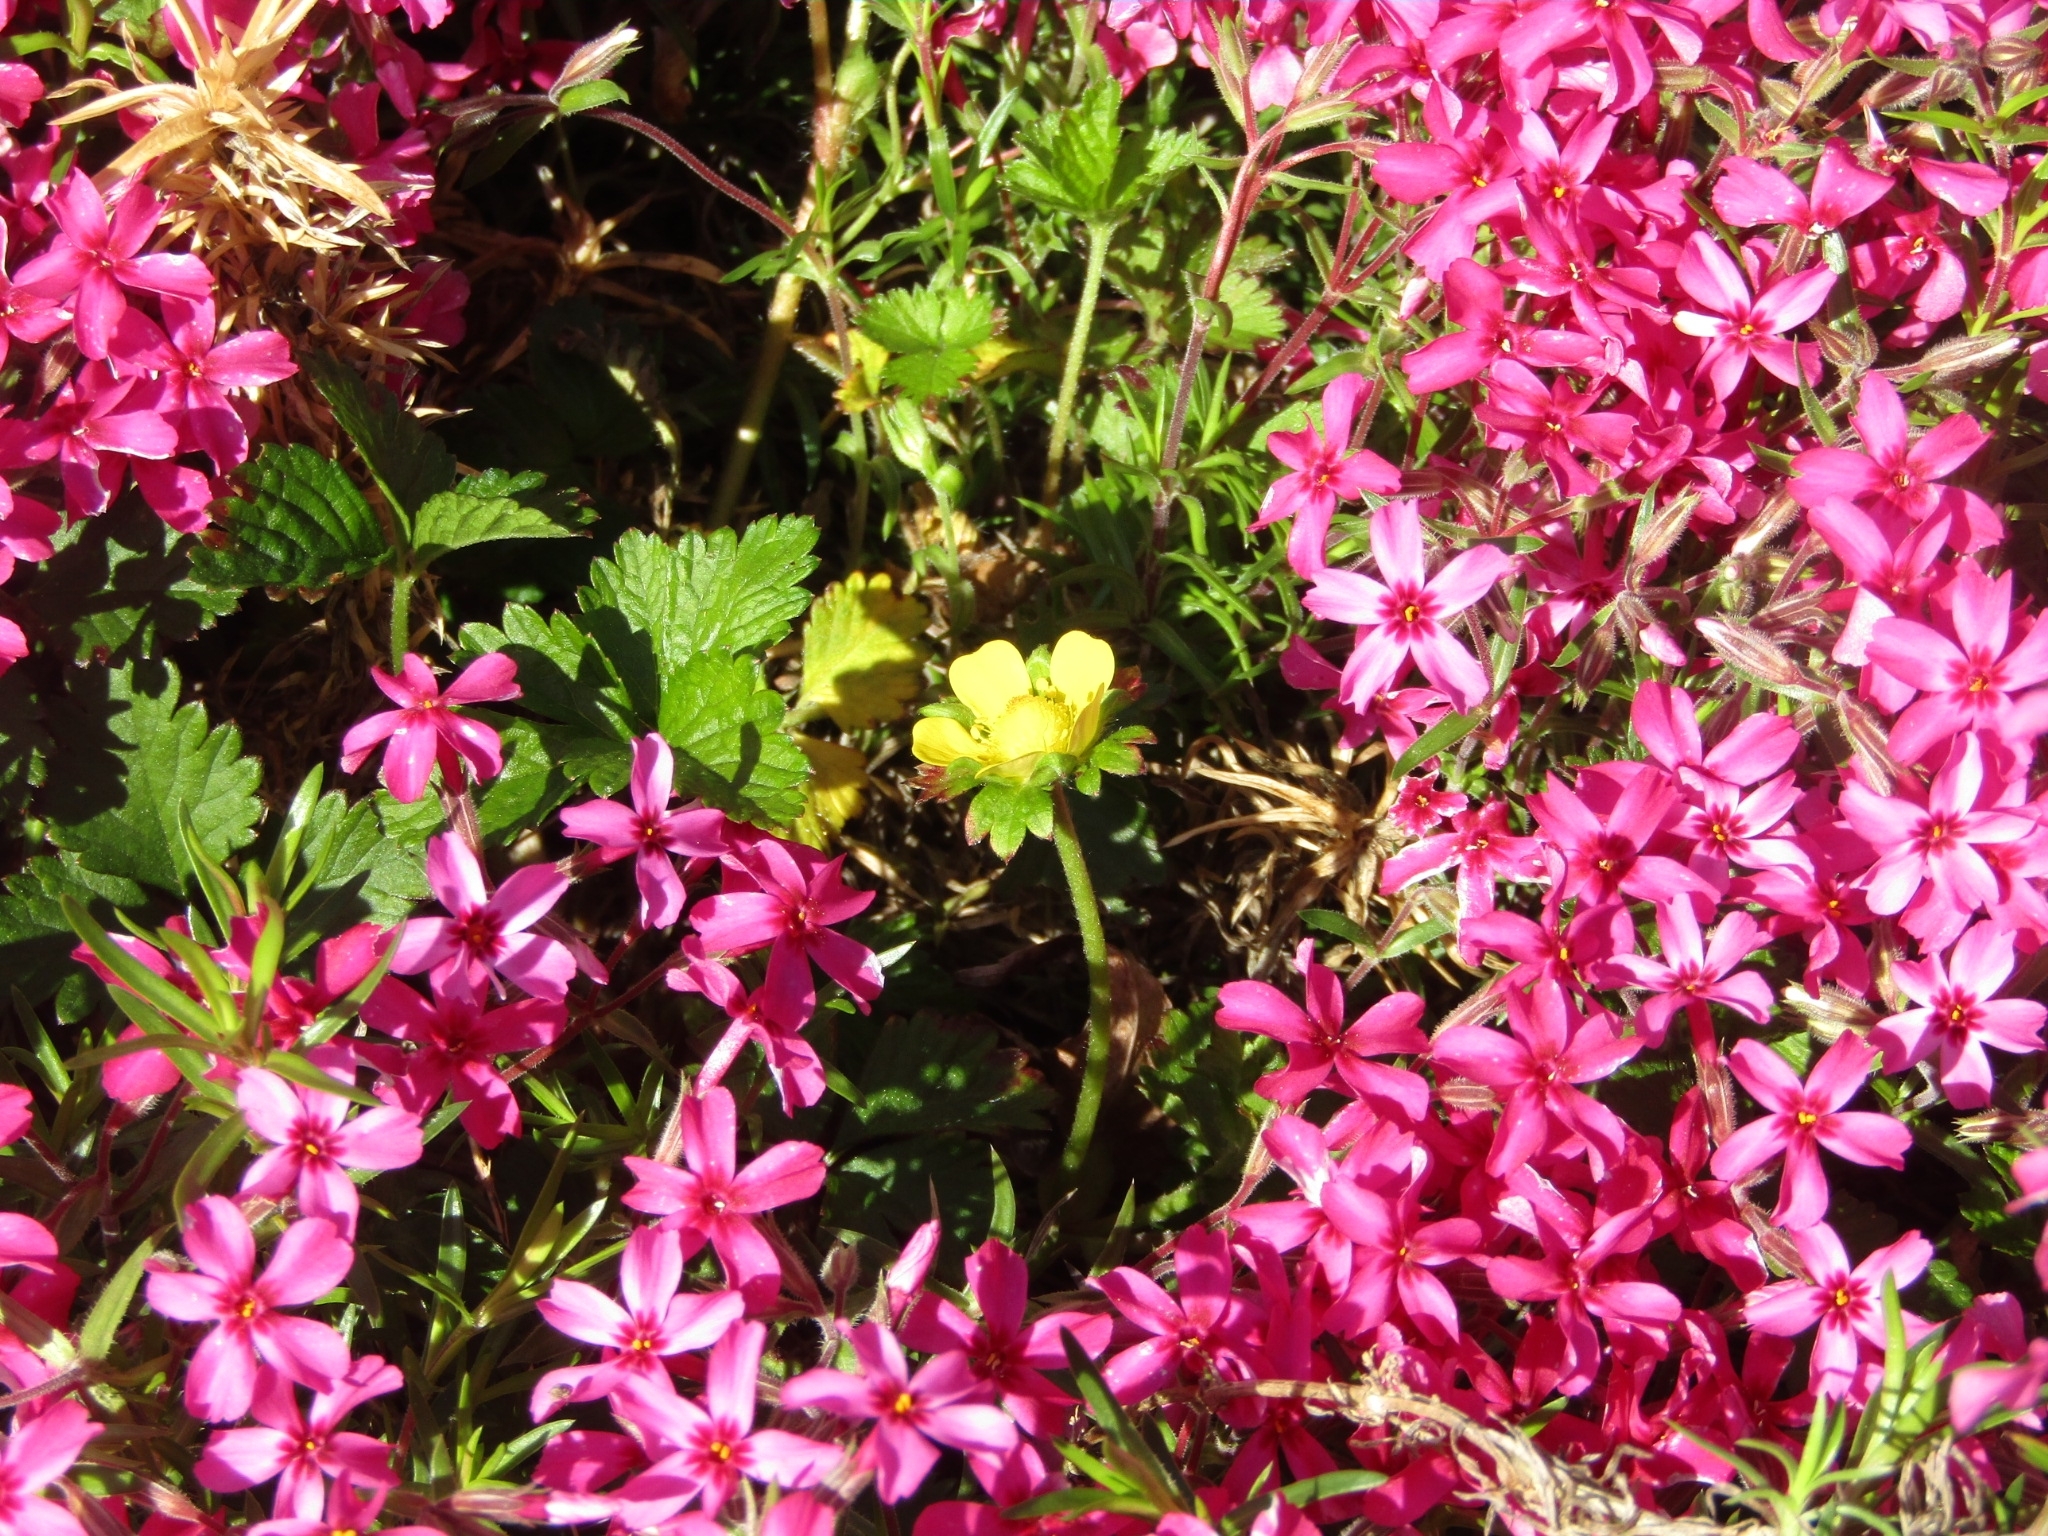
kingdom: Plantae
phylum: Tracheophyta
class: Magnoliopsida
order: Rosales
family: Rosaceae
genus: Potentilla
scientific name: Potentilla indica
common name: Yellow-flowered strawberry
